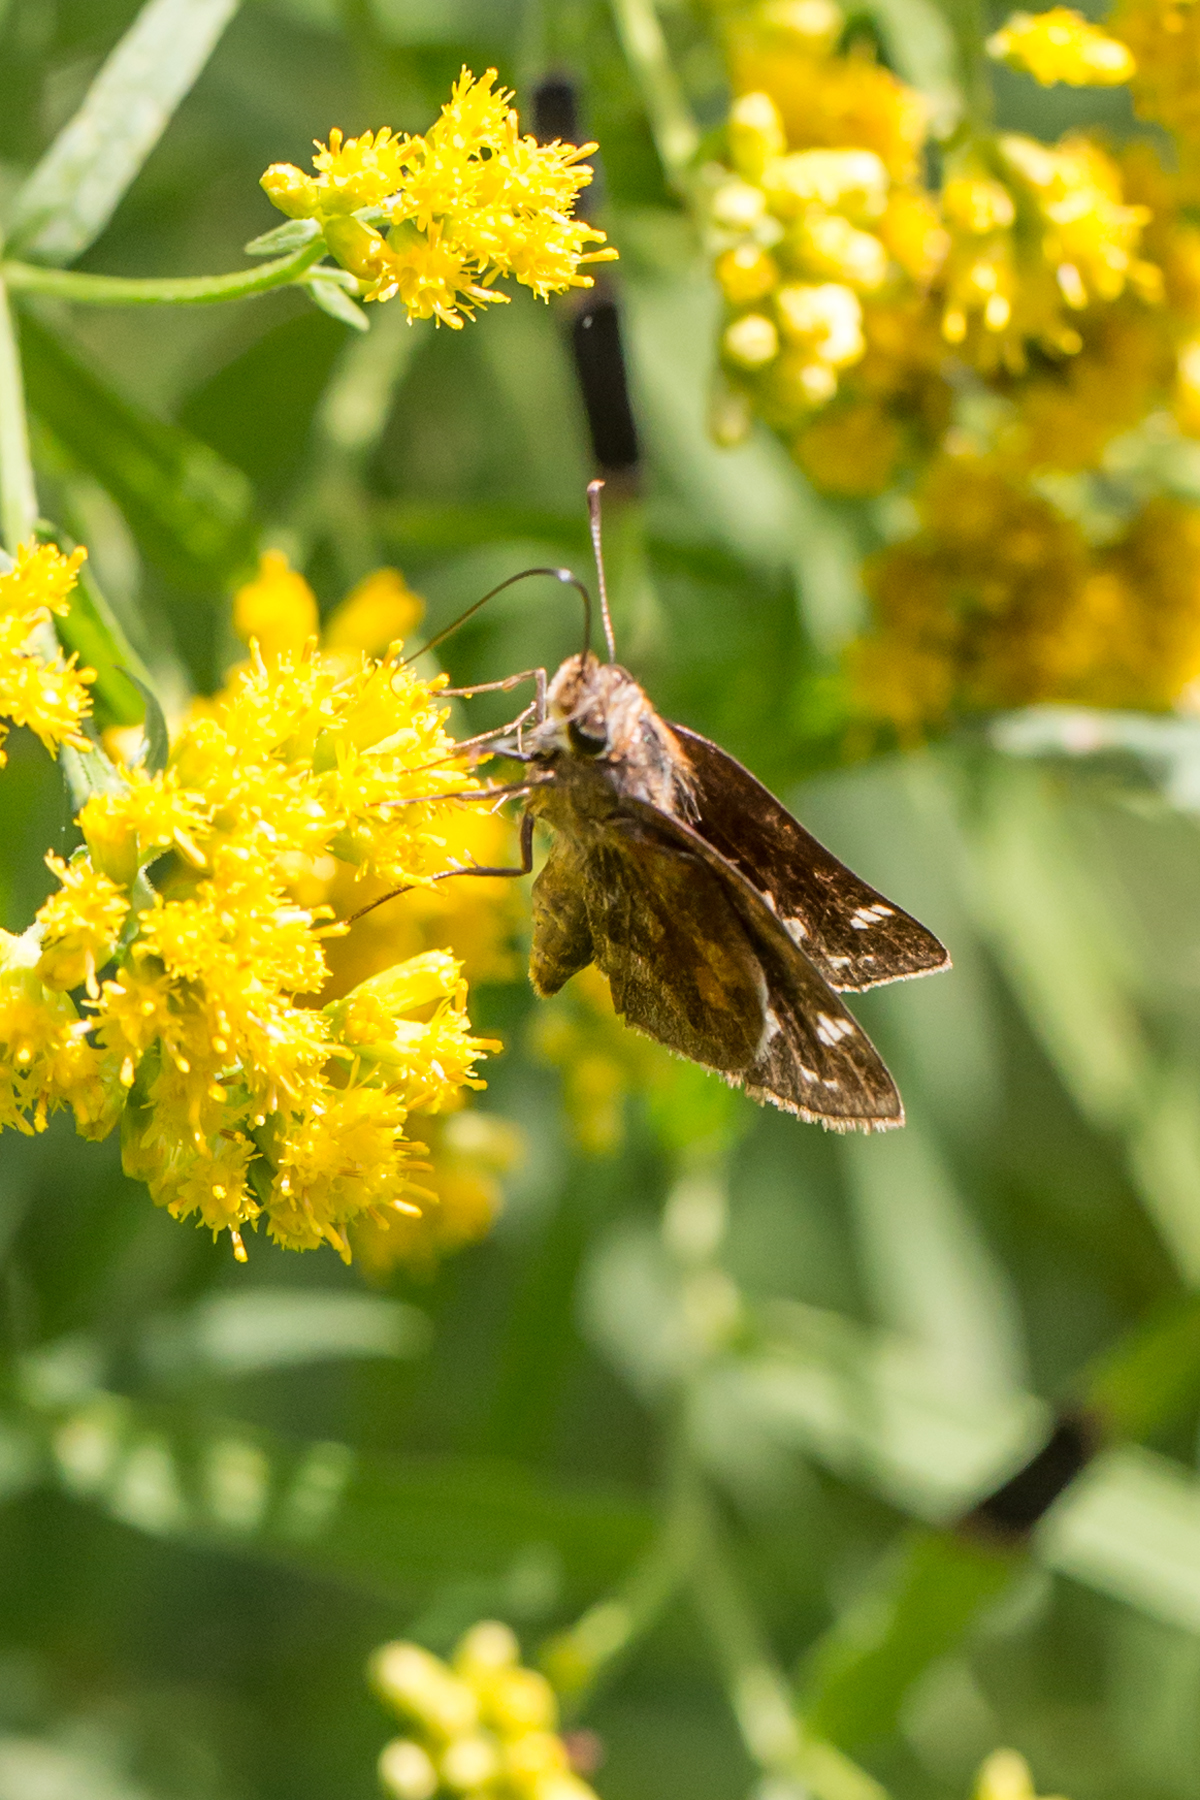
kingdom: Animalia
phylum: Arthropoda
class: Insecta
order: Lepidoptera
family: Hesperiidae
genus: Lon
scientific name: Lon zabulon
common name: Zabulon skipper
